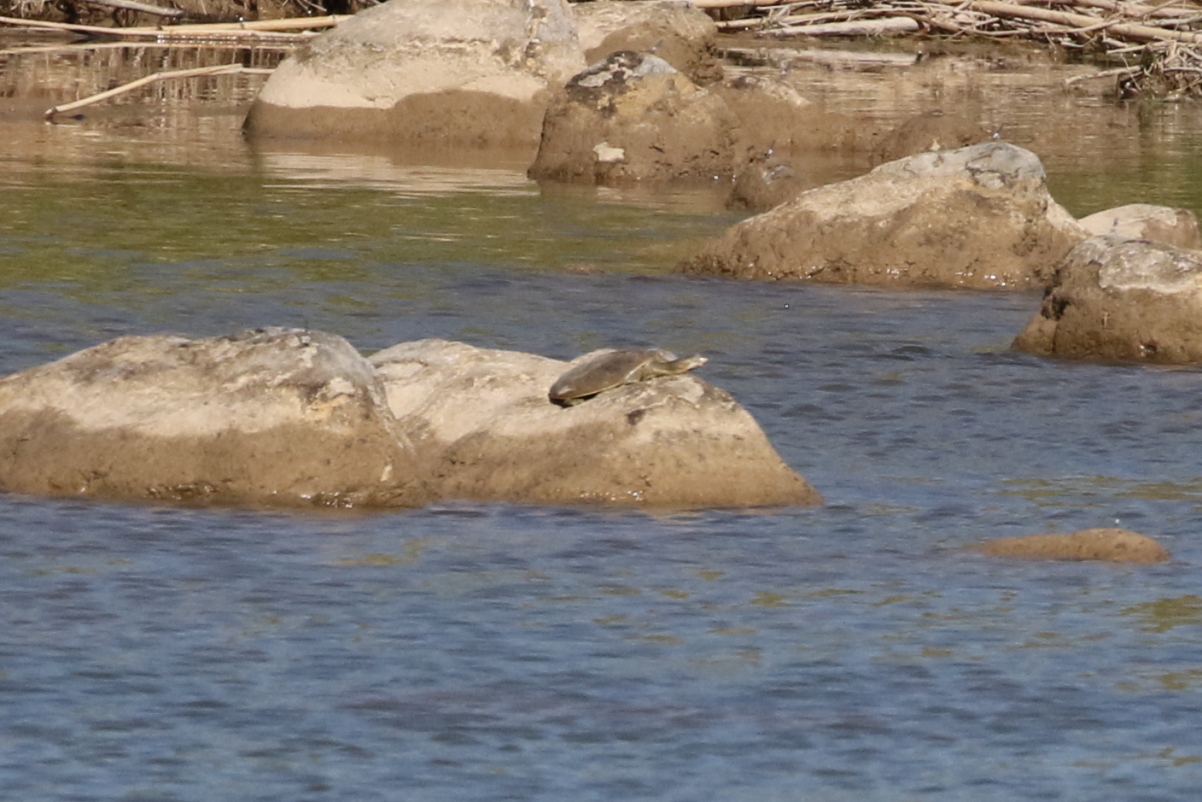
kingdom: Animalia
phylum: Chordata
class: Testudines
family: Trionychidae
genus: Apalone
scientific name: Apalone spinifera
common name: Spiny softshell turtle
